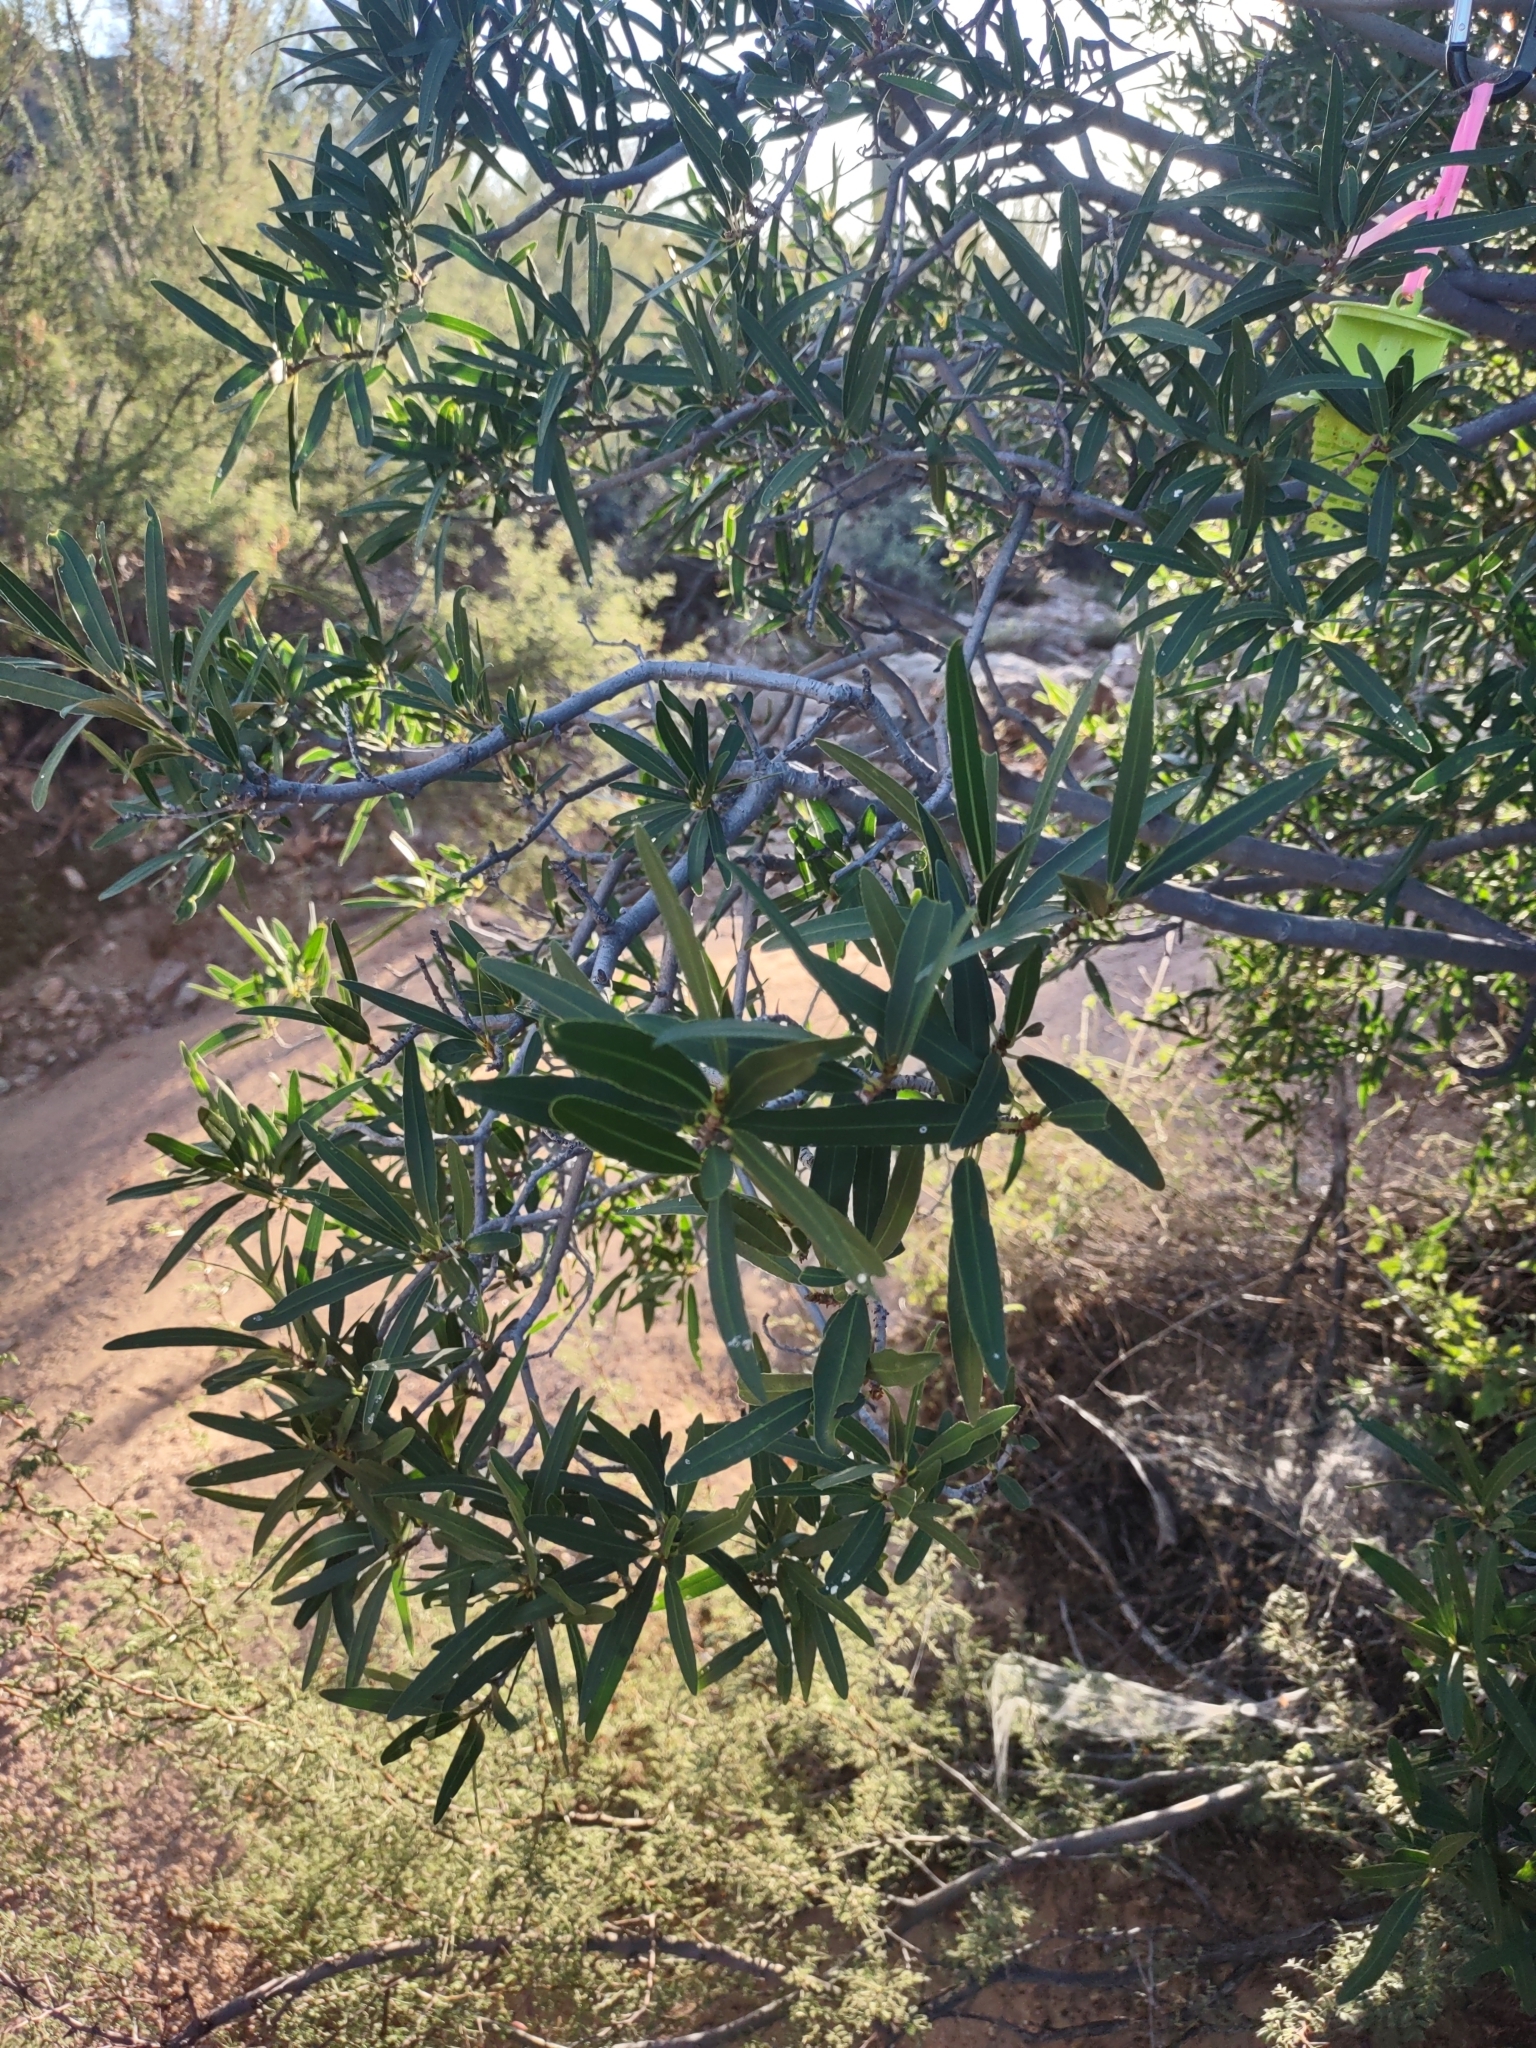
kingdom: Plantae
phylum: Tracheophyta
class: Magnoliopsida
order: Malpighiales
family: Euphorbiaceae
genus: Pleradenophora
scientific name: Pleradenophora bilocularis
